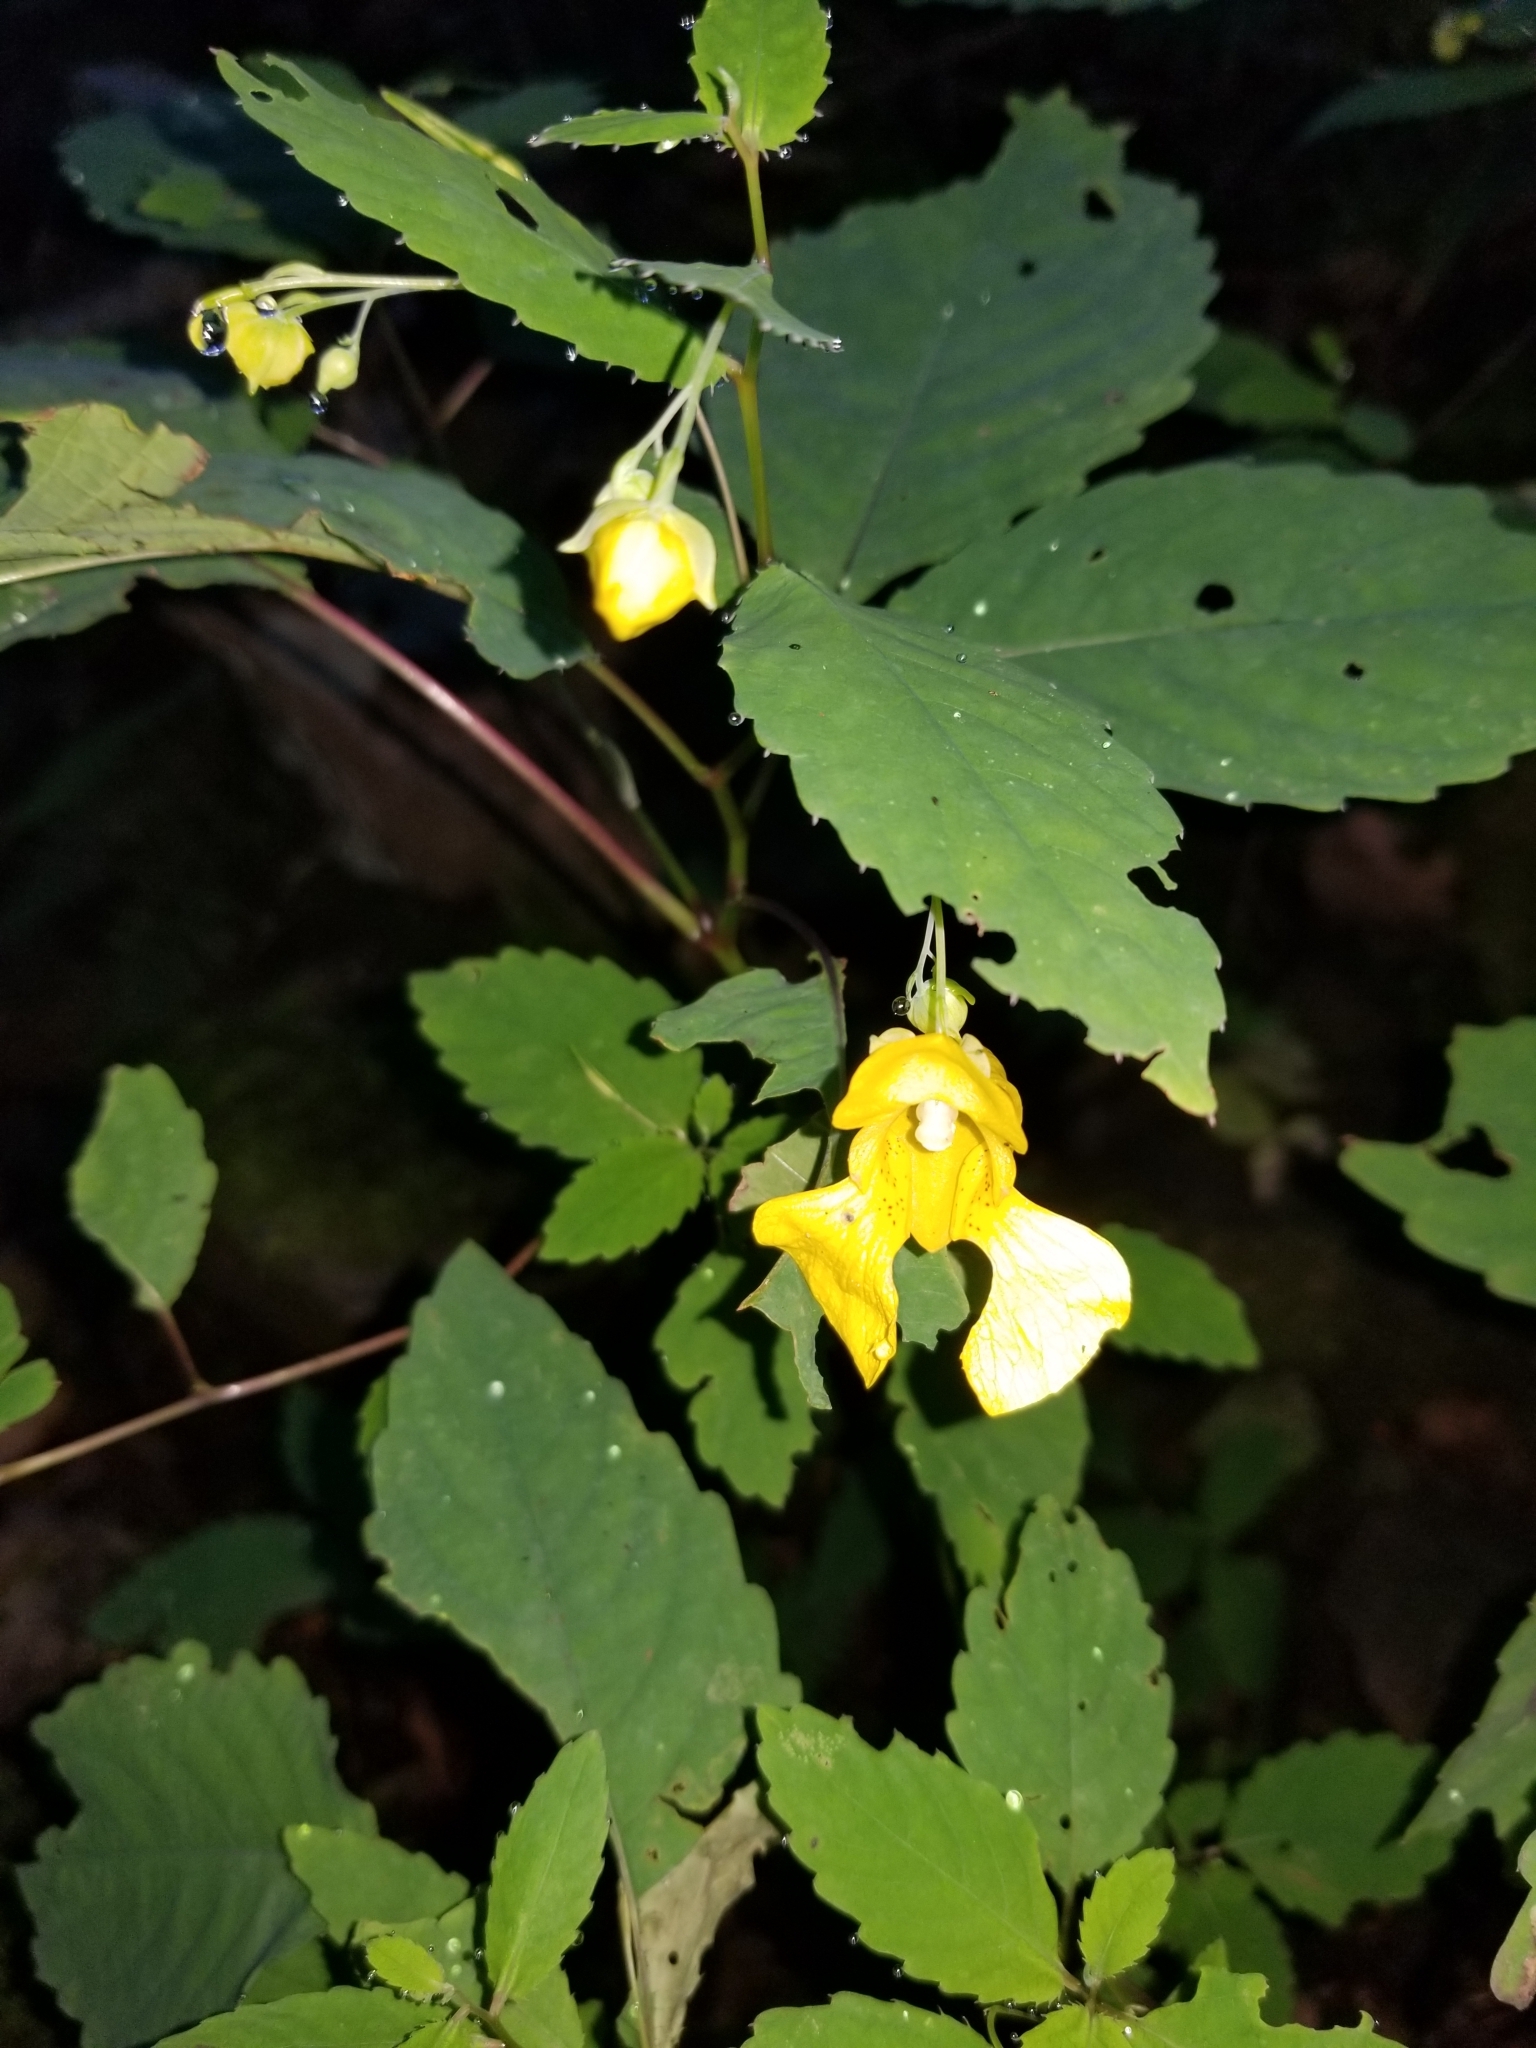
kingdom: Plantae
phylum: Tracheophyta
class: Magnoliopsida
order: Ericales
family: Balsaminaceae
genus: Impatiens
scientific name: Impatiens pallida
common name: Pale snapweed
